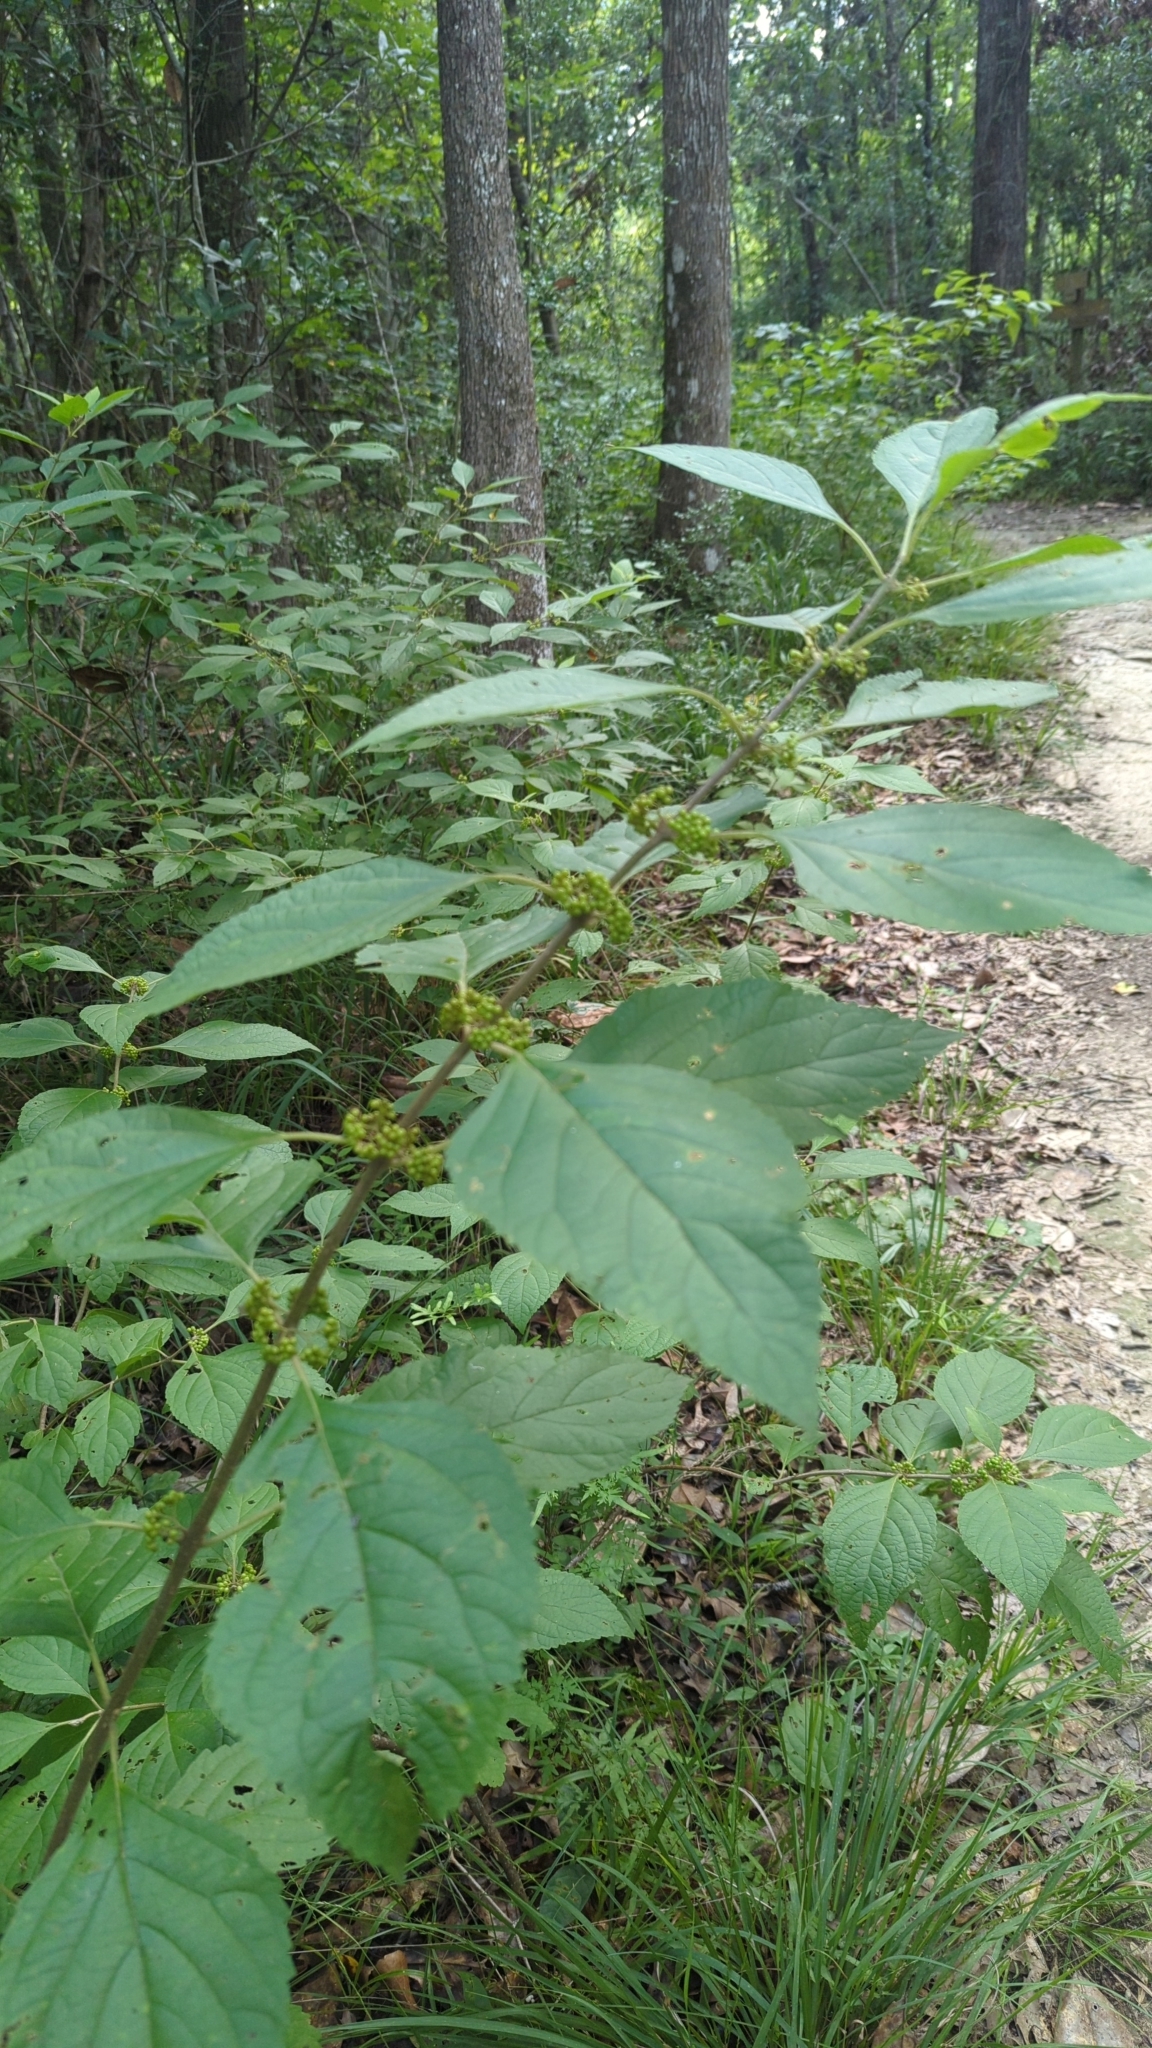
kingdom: Plantae
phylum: Tracheophyta
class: Magnoliopsida
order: Lamiales
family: Lamiaceae
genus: Callicarpa
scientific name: Callicarpa americana
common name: American beautyberry
